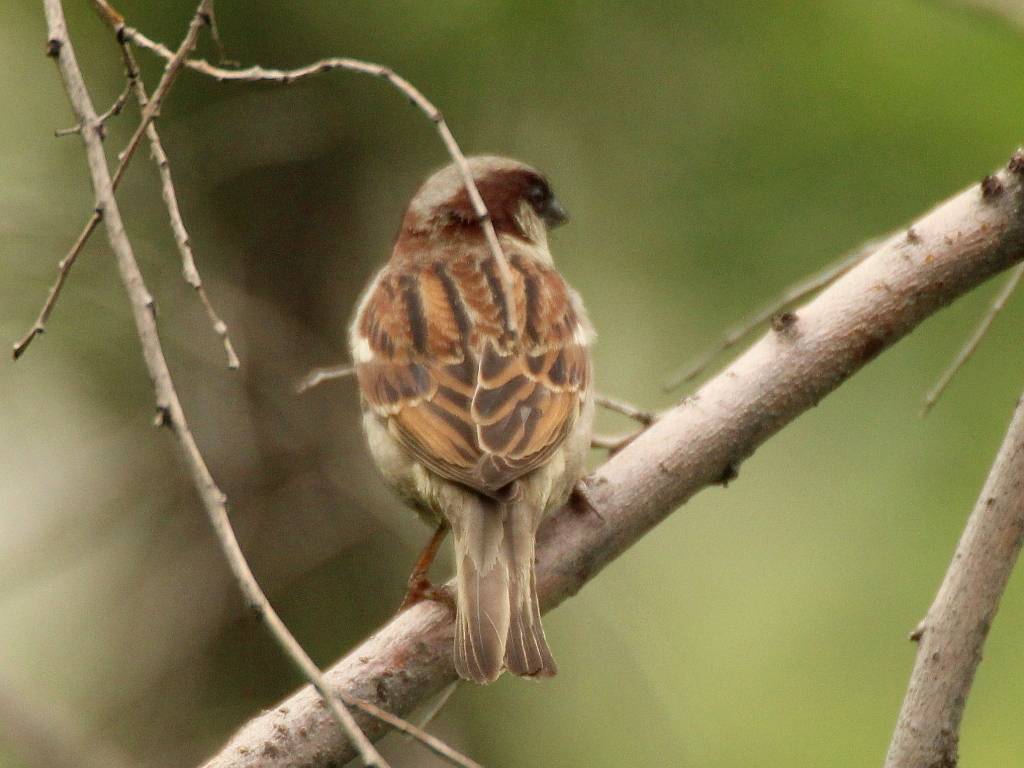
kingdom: Animalia
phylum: Chordata
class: Aves
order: Passeriformes
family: Passeridae
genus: Passer
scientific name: Passer domesticus
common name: House sparrow
